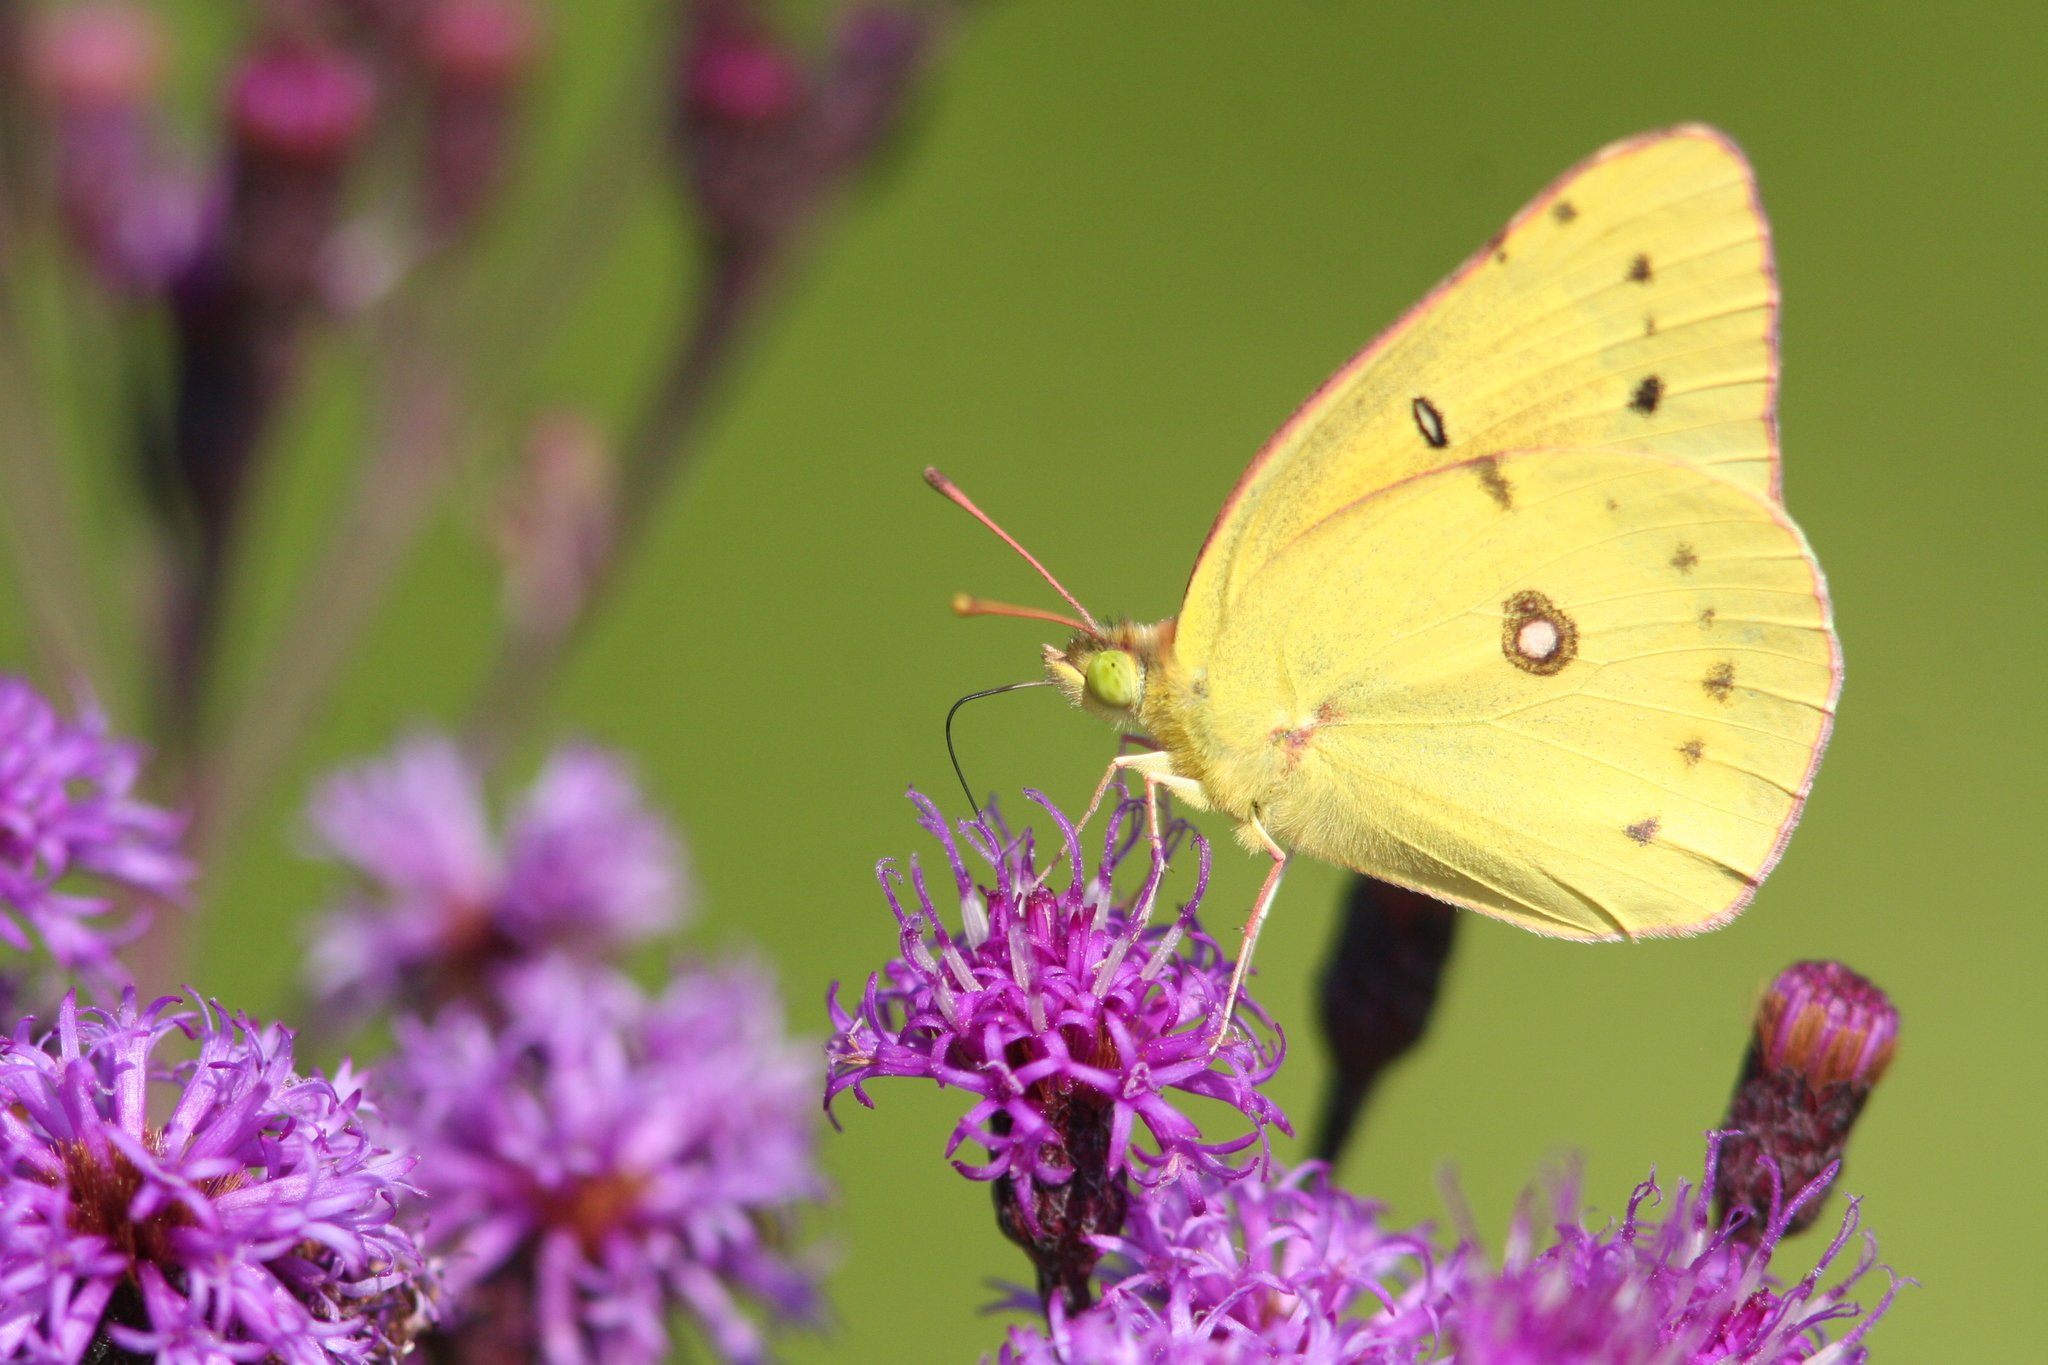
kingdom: Animalia
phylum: Arthropoda
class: Insecta
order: Lepidoptera
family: Pieridae
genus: Colias
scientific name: Colias eurytheme
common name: Alfalfa butterfly
